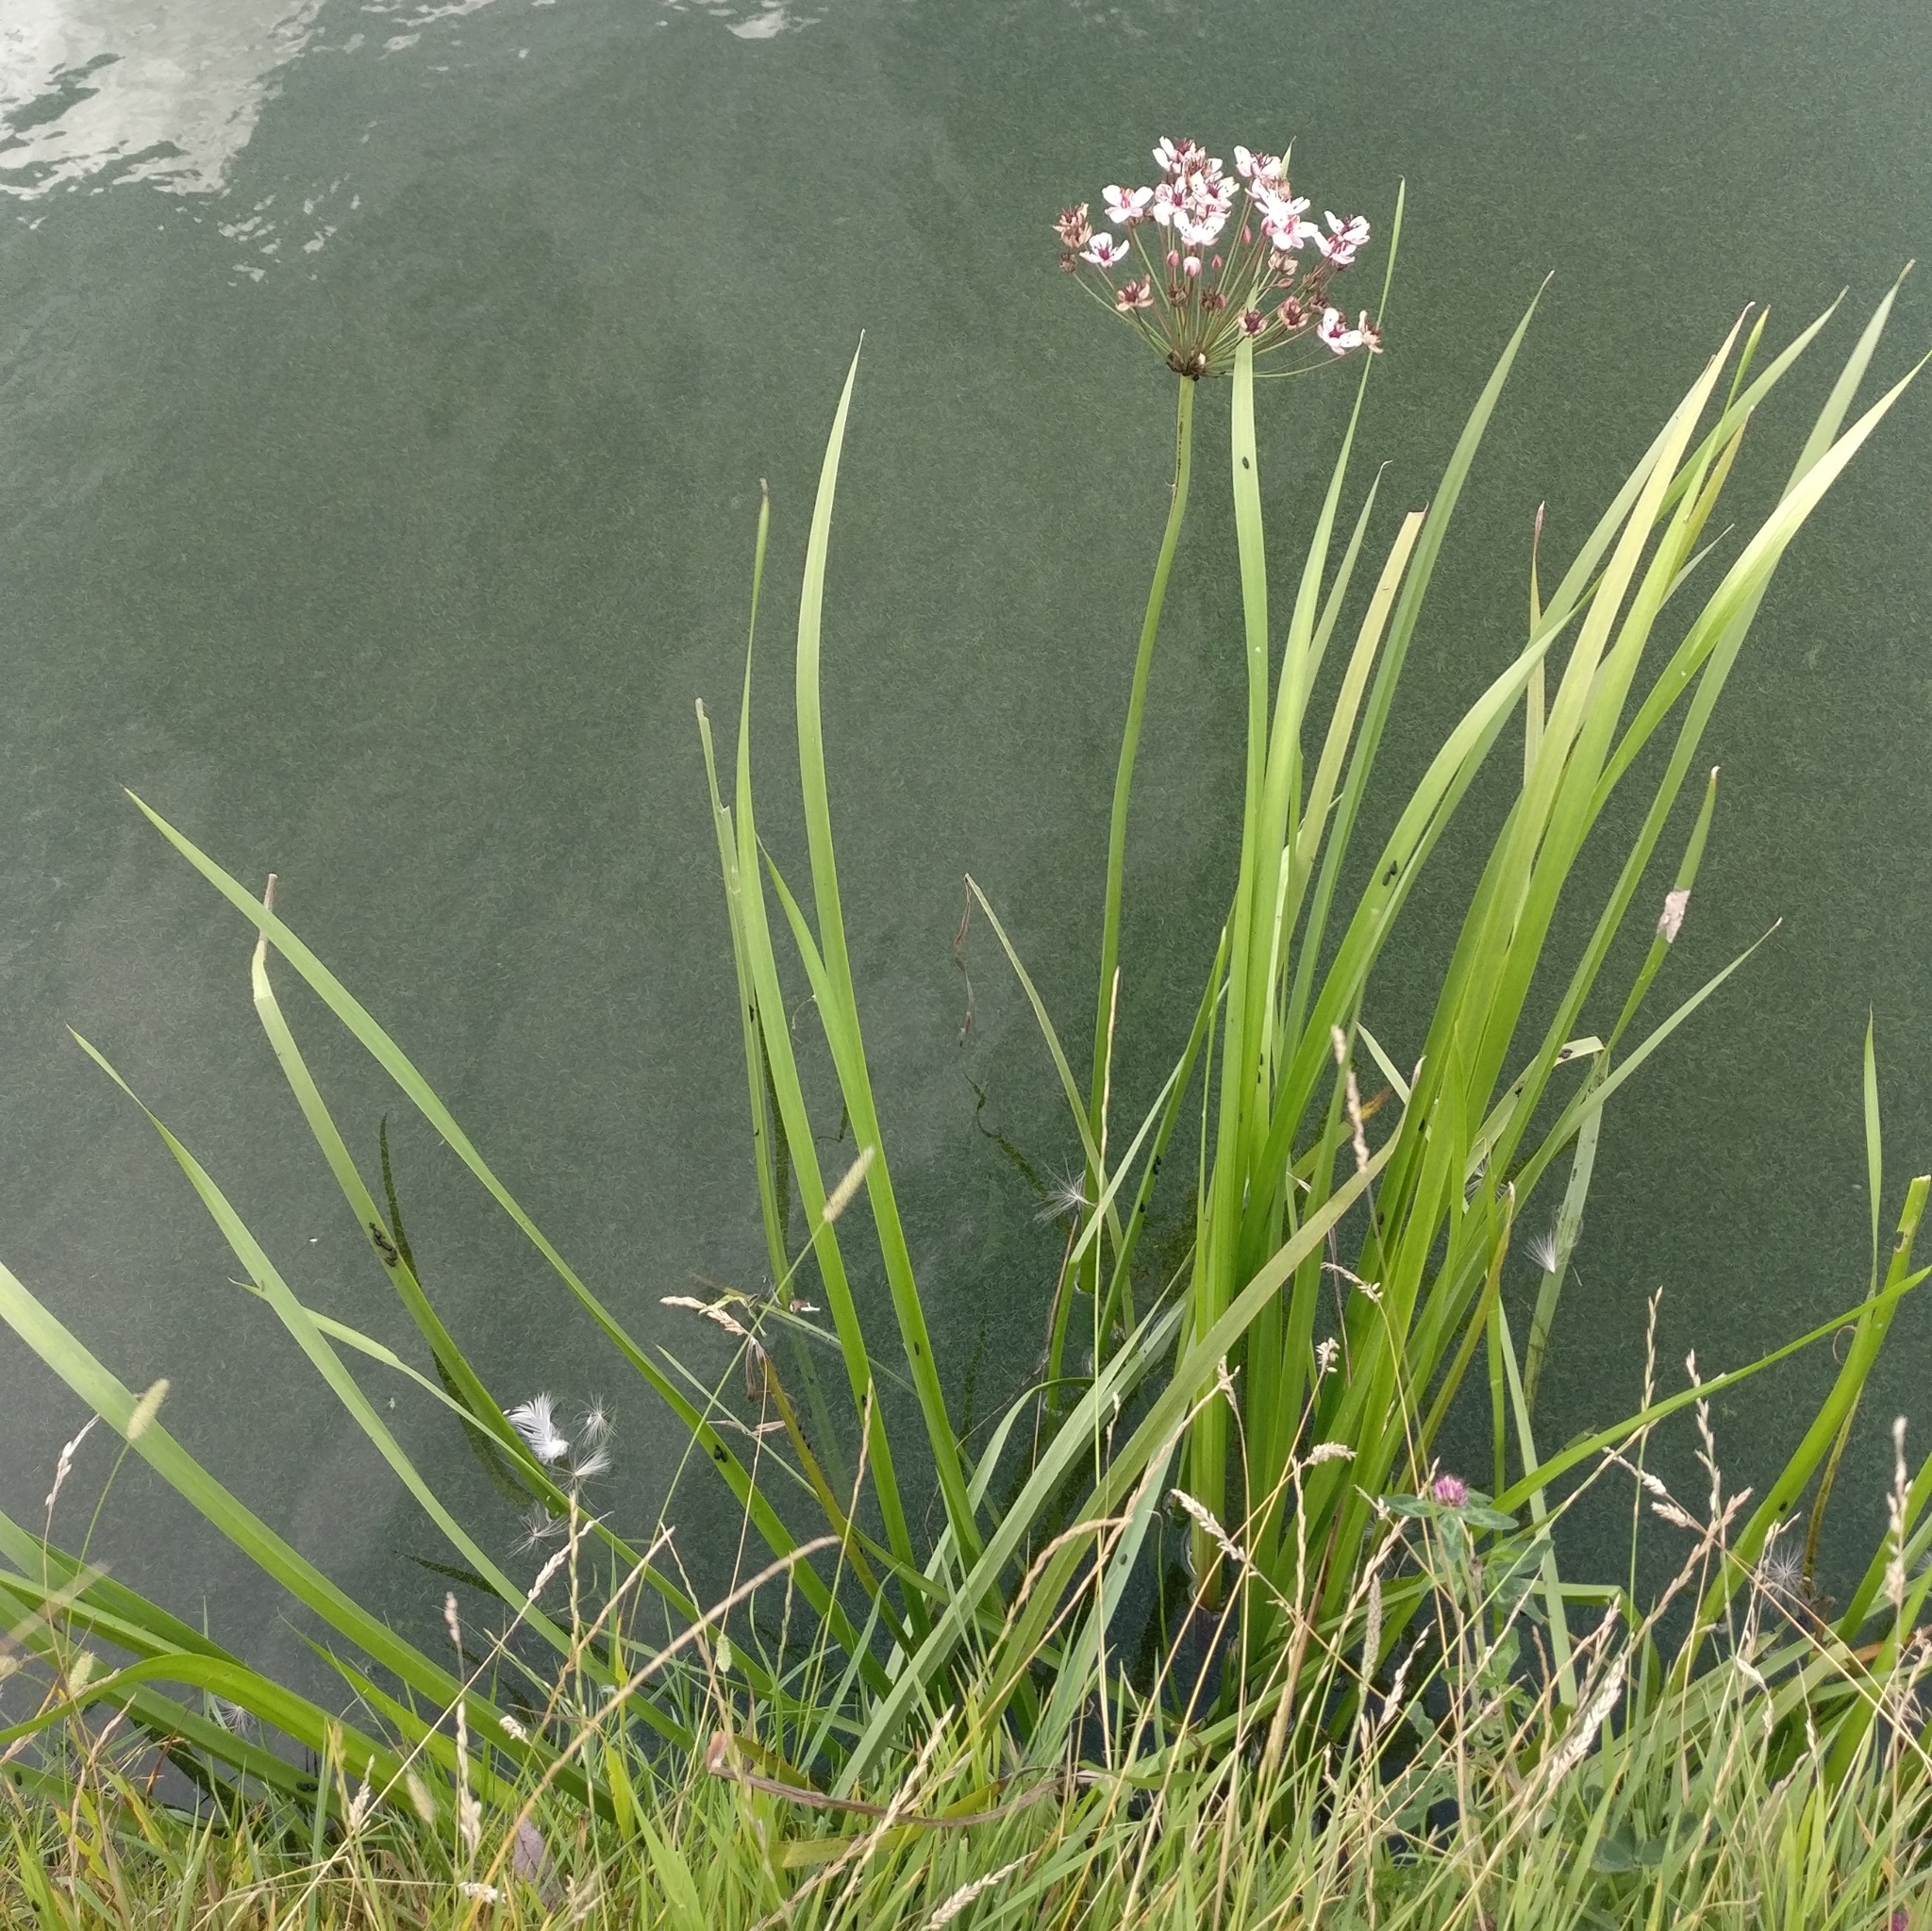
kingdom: Plantae
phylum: Tracheophyta
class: Liliopsida
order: Alismatales
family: Butomaceae
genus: Butomus
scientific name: Butomus umbellatus
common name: Flowering-rush
